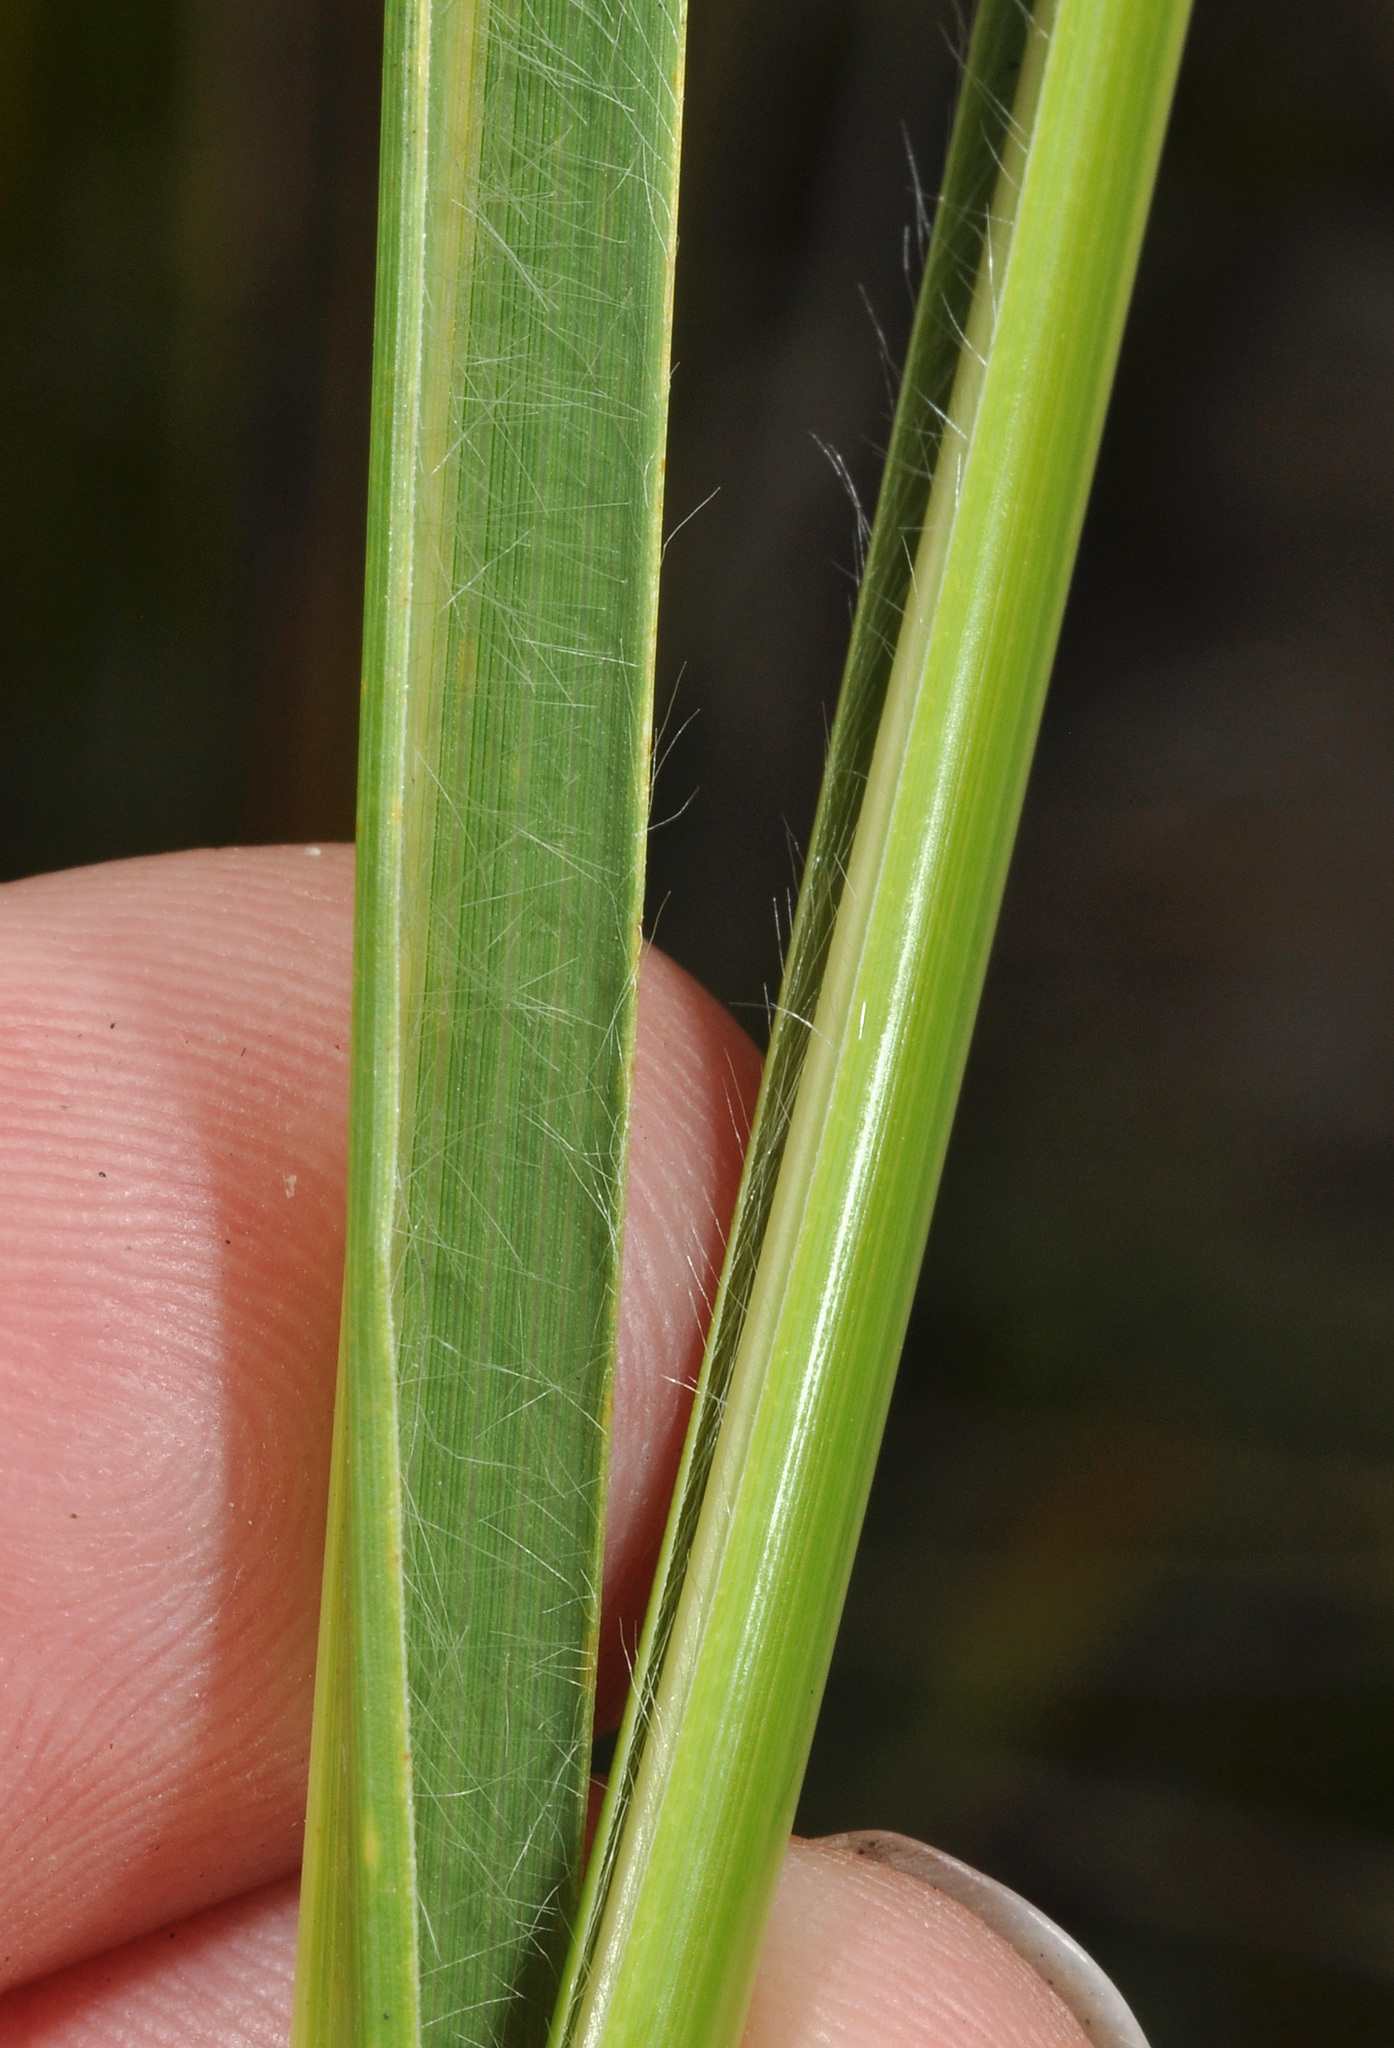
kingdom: Plantae
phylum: Tracheophyta
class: Liliopsida
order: Poales
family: Poaceae
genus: Chionochloa
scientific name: Chionochloa pallens
